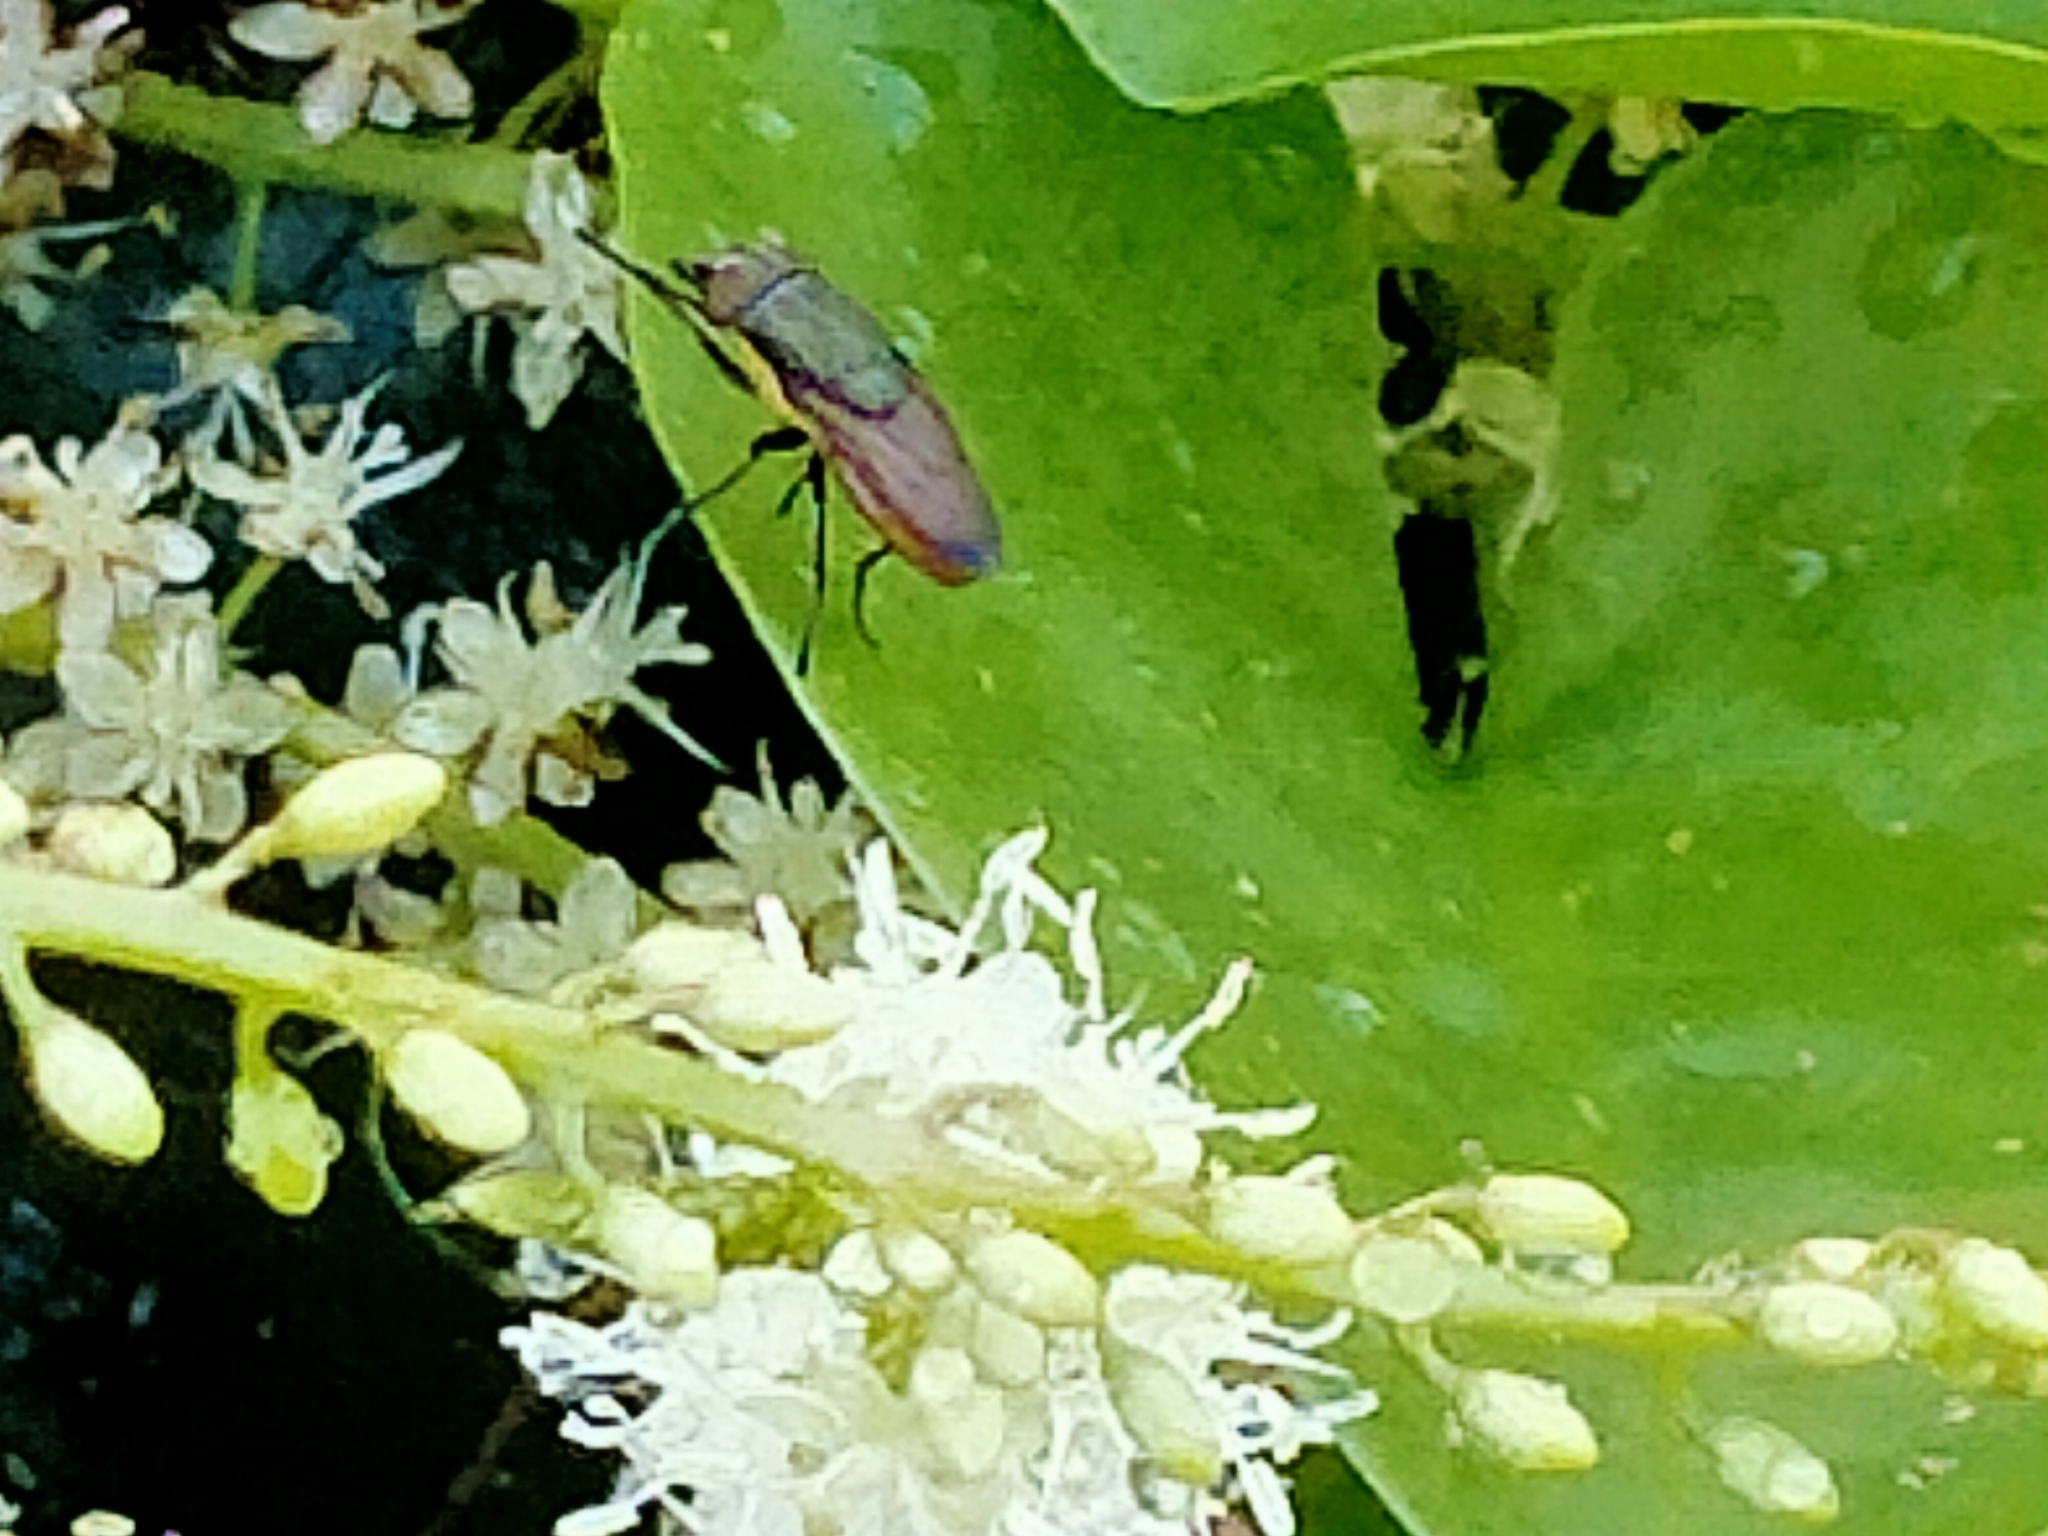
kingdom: Plantae
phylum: Tracheophyta
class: Magnoliopsida
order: Caryophyllales
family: Basellaceae
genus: Anredera
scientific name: Anredera cordifolia
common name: Heartleaf madeiravine
